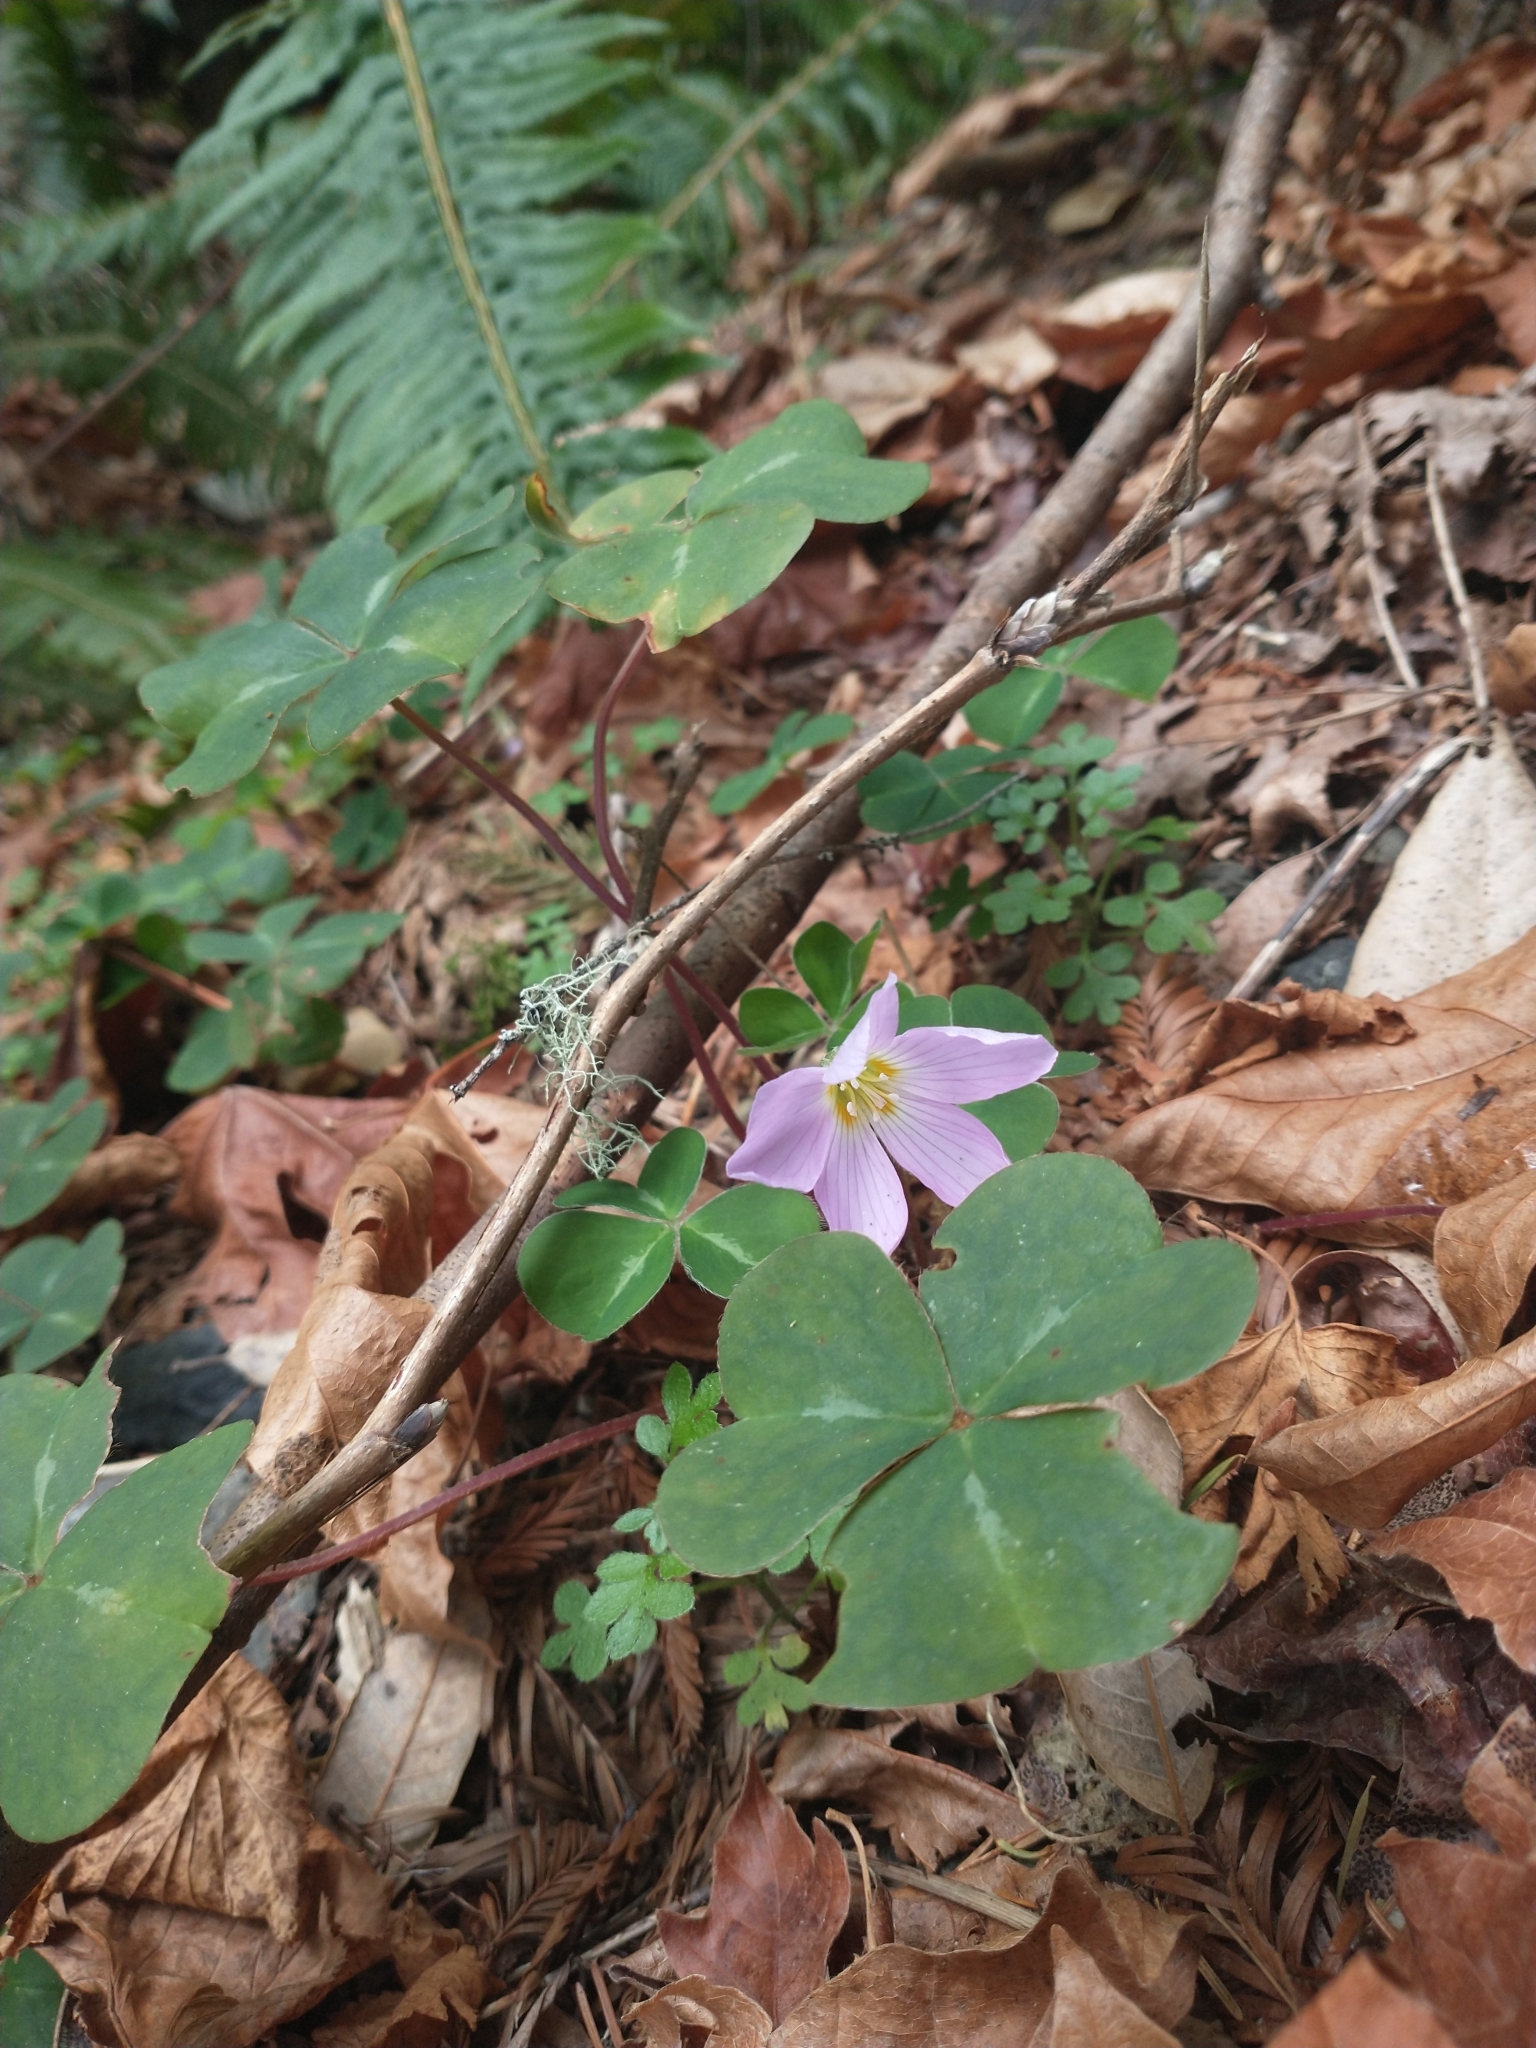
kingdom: Plantae
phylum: Tracheophyta
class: Magnoliopsida
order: Oxalidales
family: Oxalidaceae
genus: Oxalis
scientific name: Oxalis oregana
